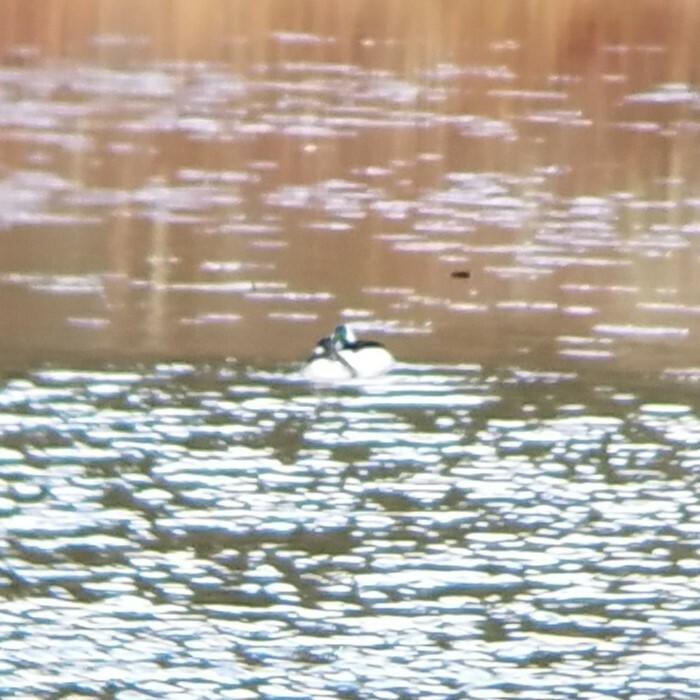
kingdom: Animalia
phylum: Chordata
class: Aves
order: Anseriformes
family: Anatidae
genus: Bucephala
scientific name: Bucephala albeola
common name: Bufflehead
